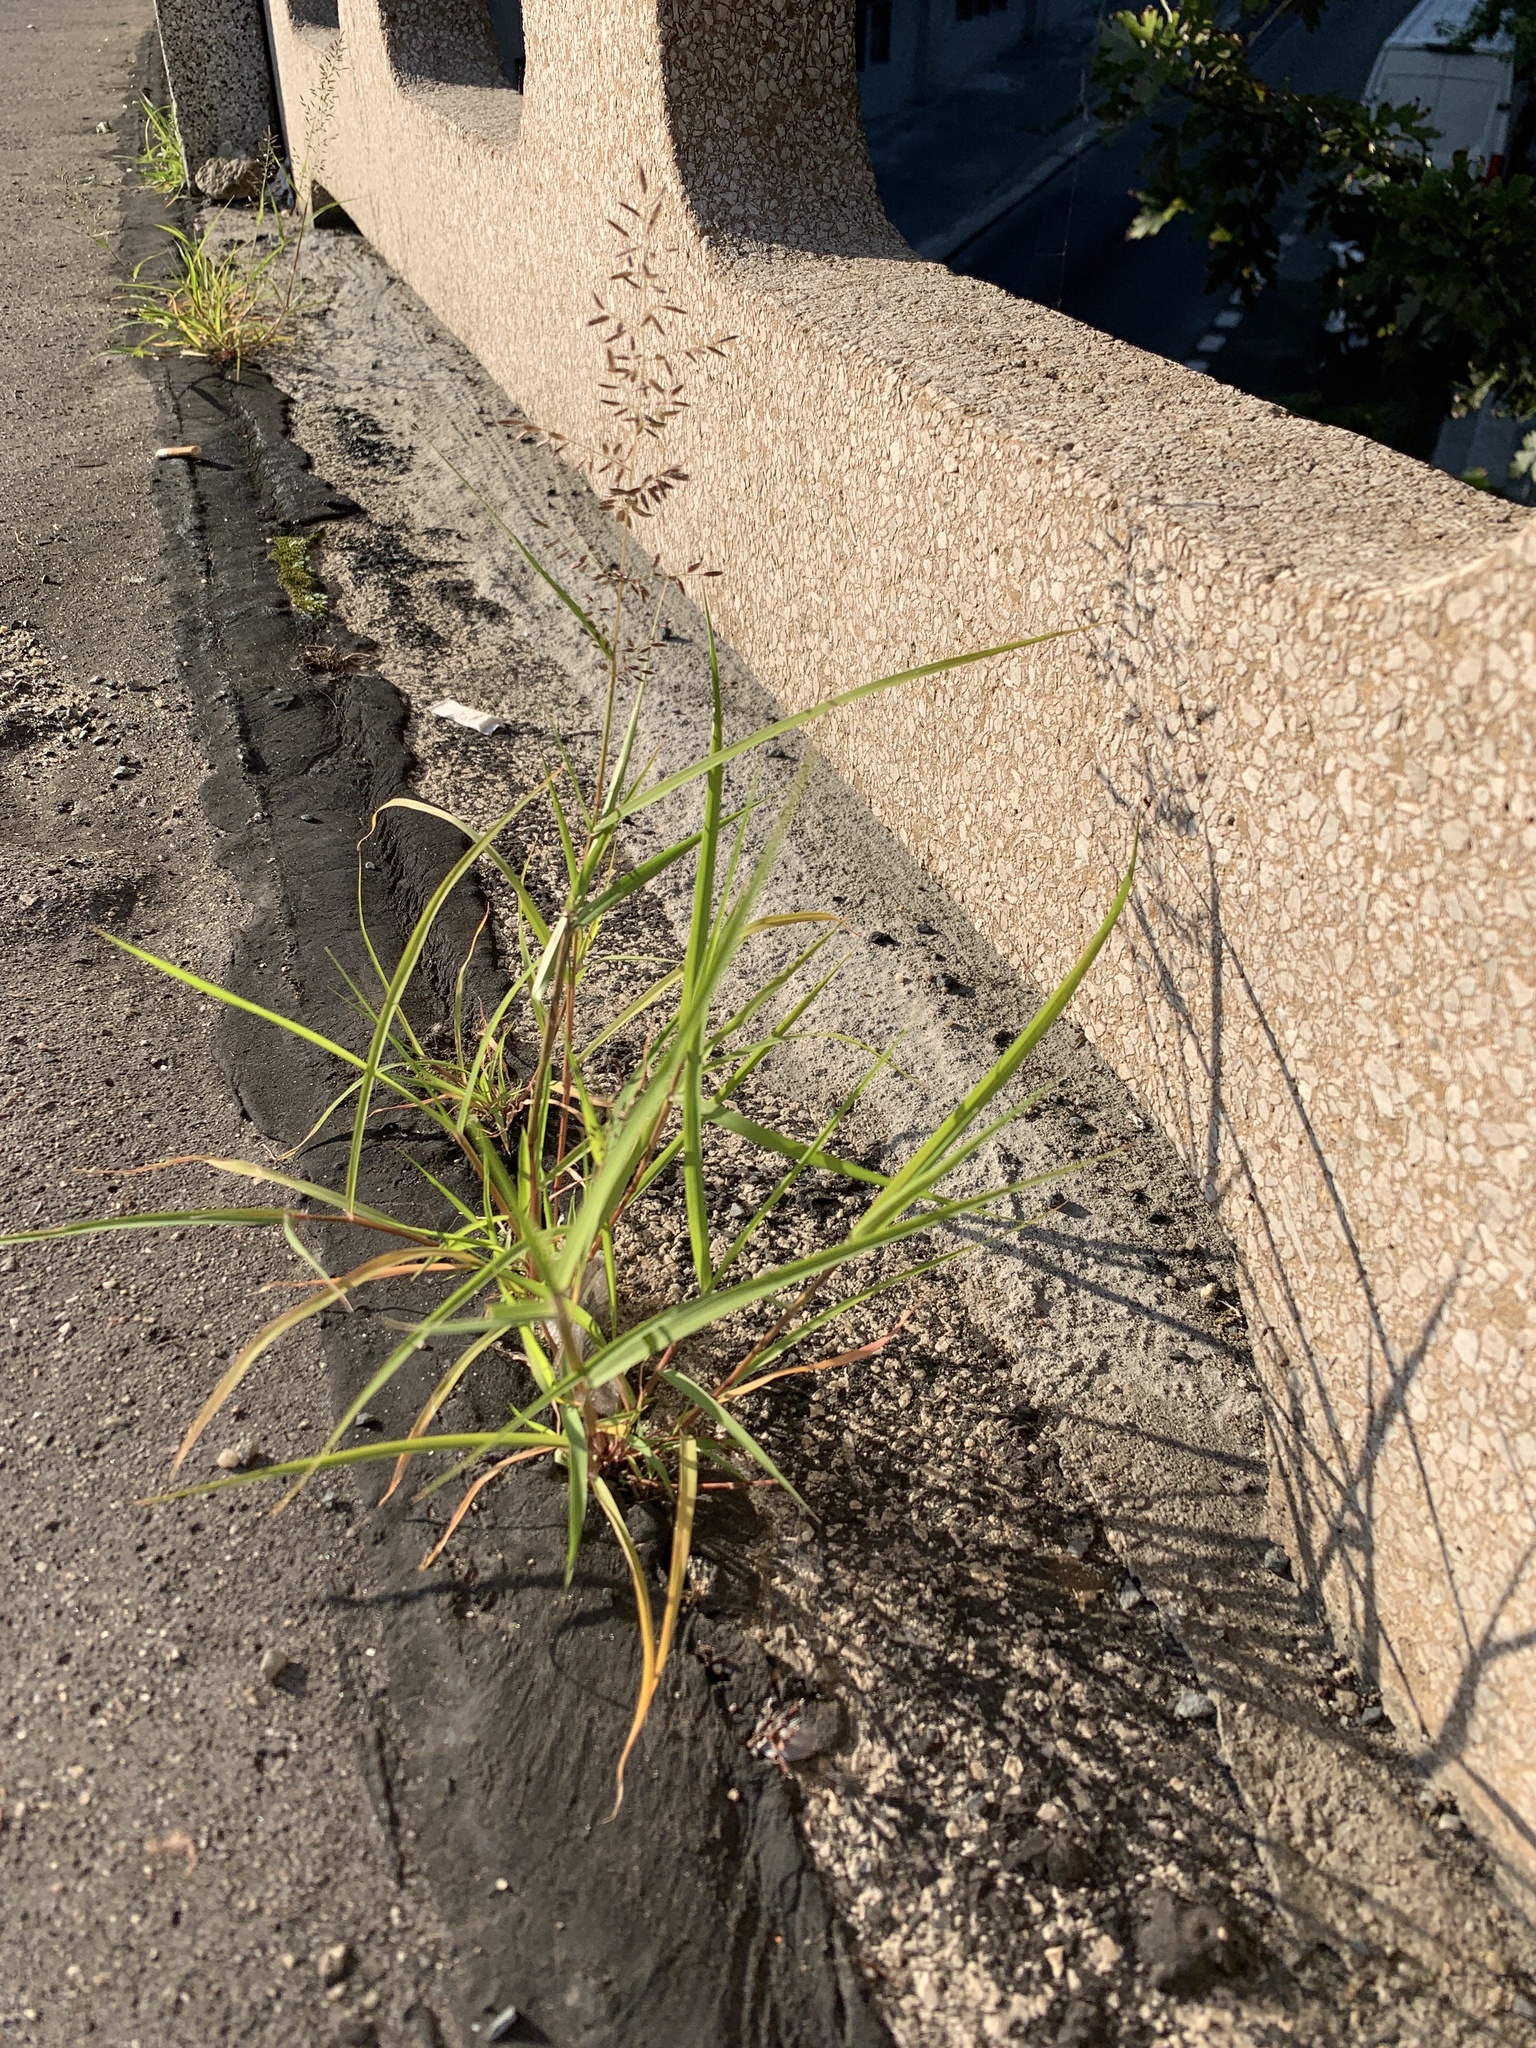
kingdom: Plantae
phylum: Tracheophyta
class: Liliopsida
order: Poales
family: Poaceae
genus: Eragrostis
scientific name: Eragrostis minor
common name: Small love-grass
